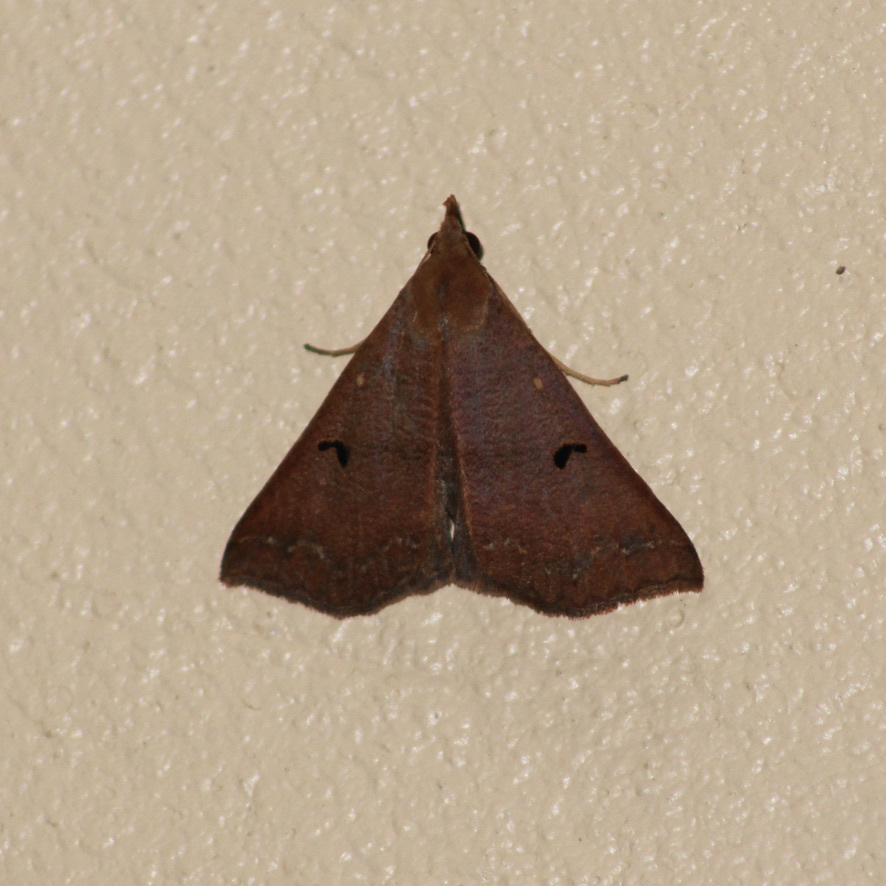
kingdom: Animalia
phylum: Arthropoda
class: Insecta
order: Lepidoptera
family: Erebidae
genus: Renia
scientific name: Renia bipunctata
